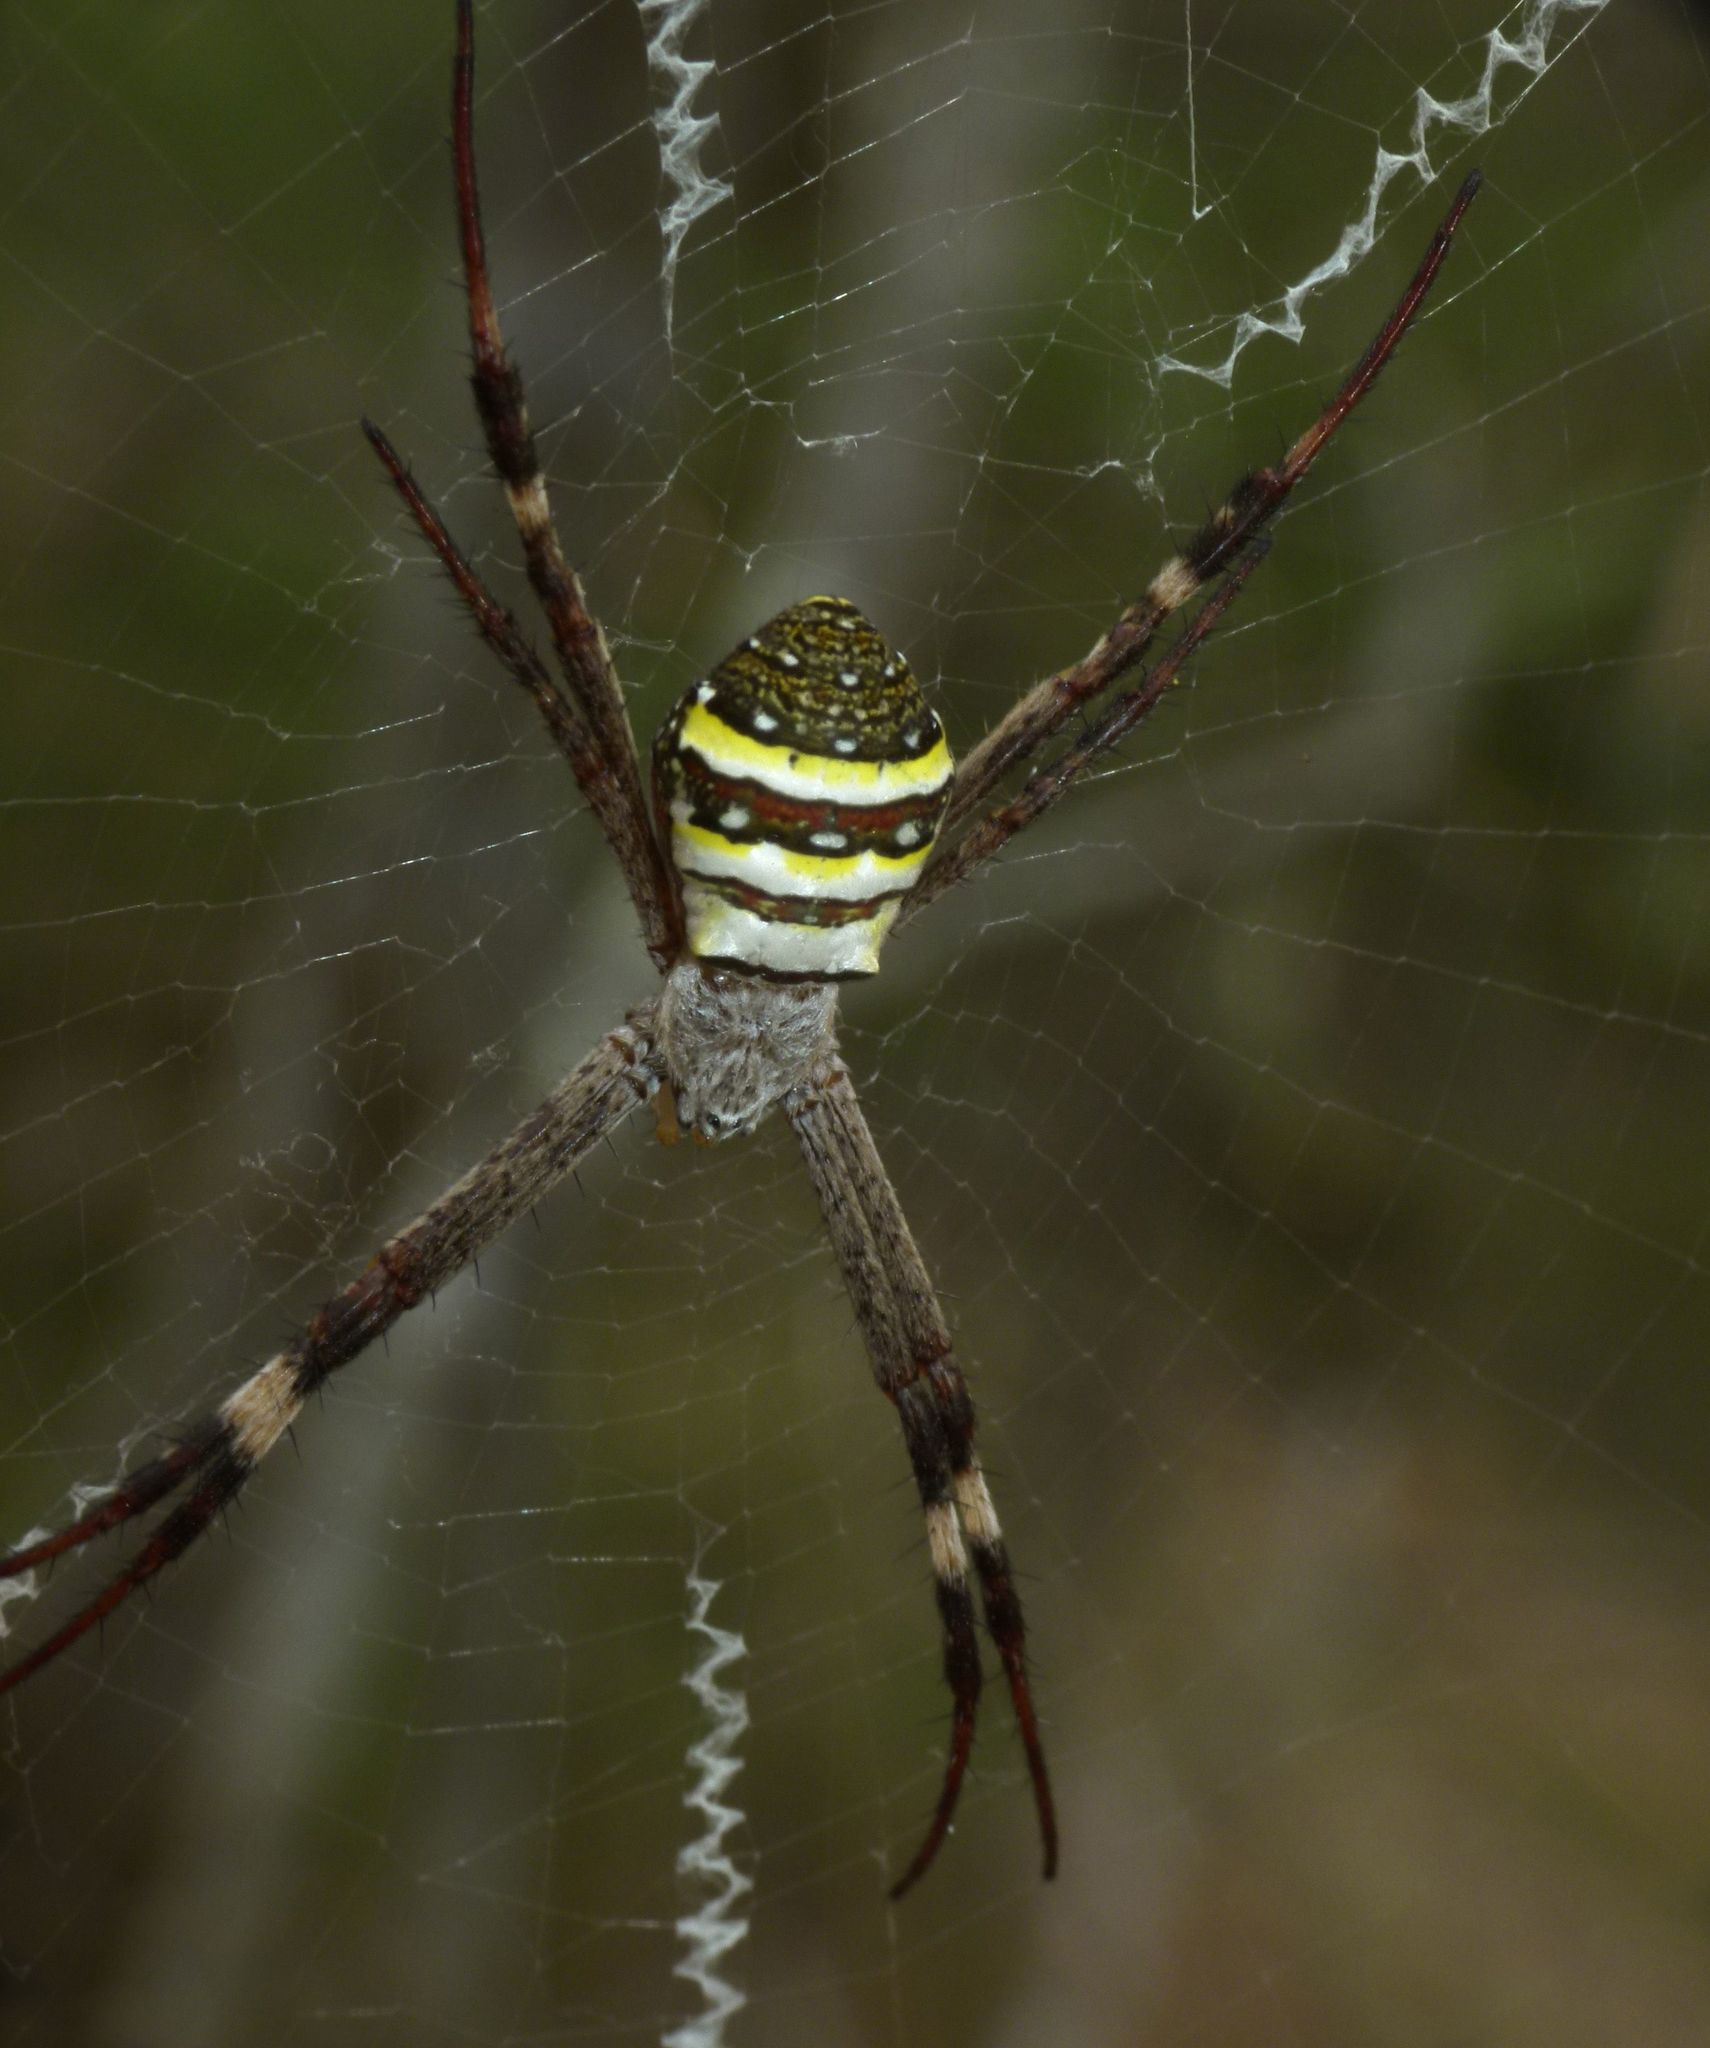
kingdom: Animalia
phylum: Arthropoda
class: Arachnida
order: Araneae
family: Araneidae
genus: Argiope
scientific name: Argiope keyserlingi
